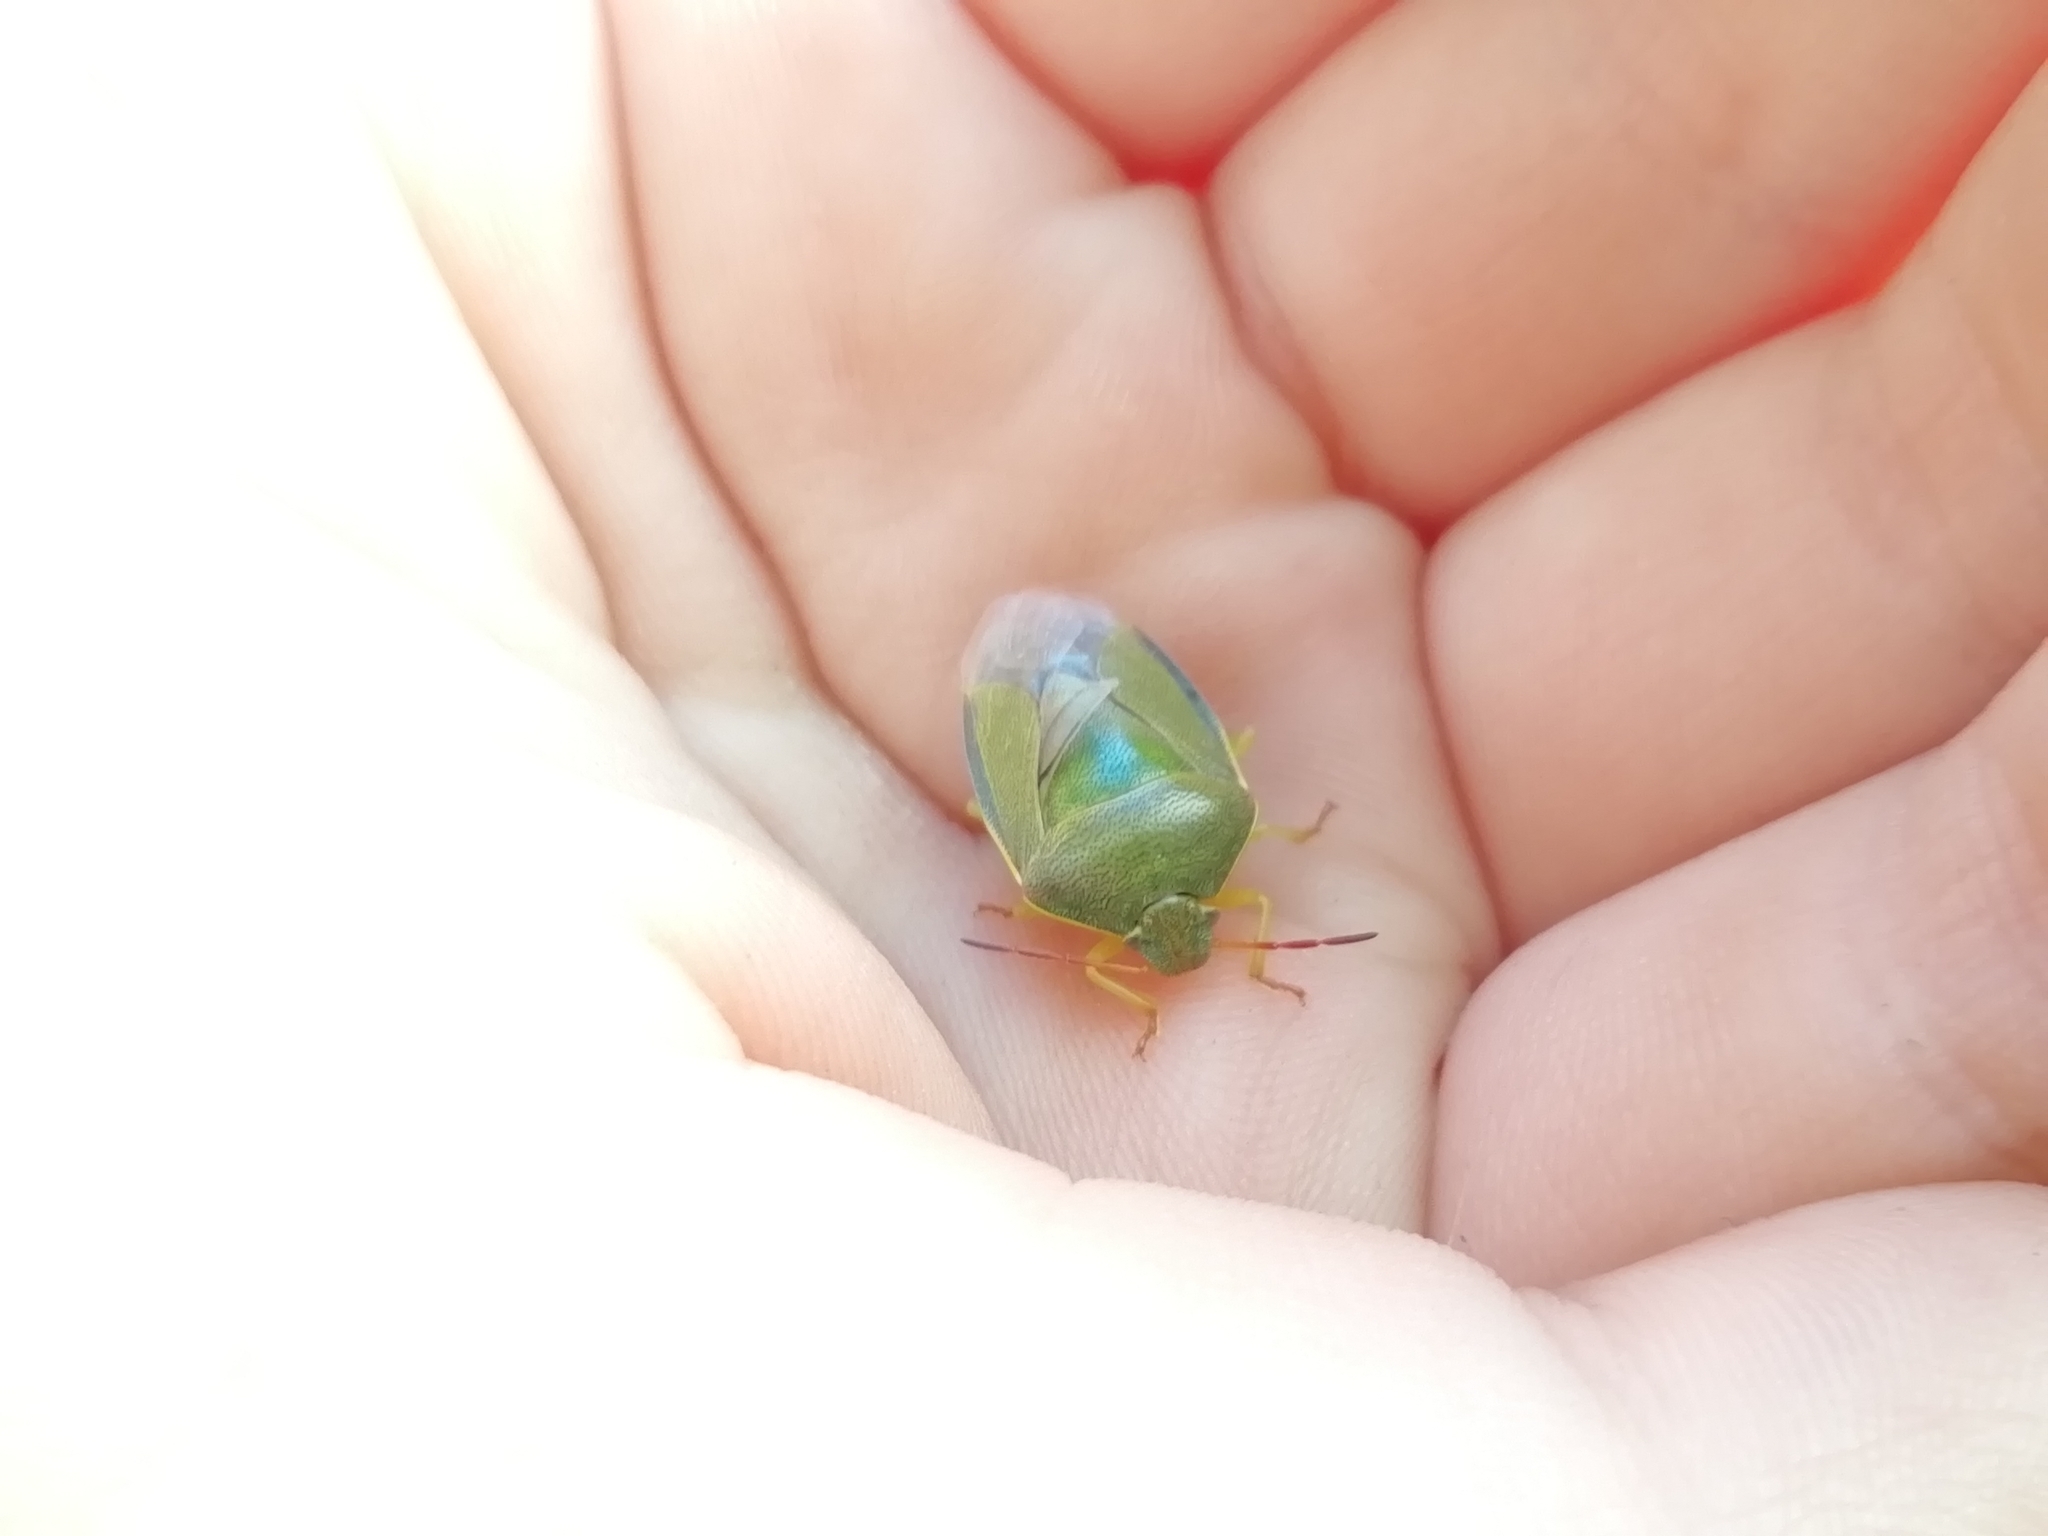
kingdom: Animalia
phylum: Arthropoda
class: Insecta
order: Hemiptera
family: Pentatomidae
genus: Piezodorus
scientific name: Piezodorus lituratus
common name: Stink bug
